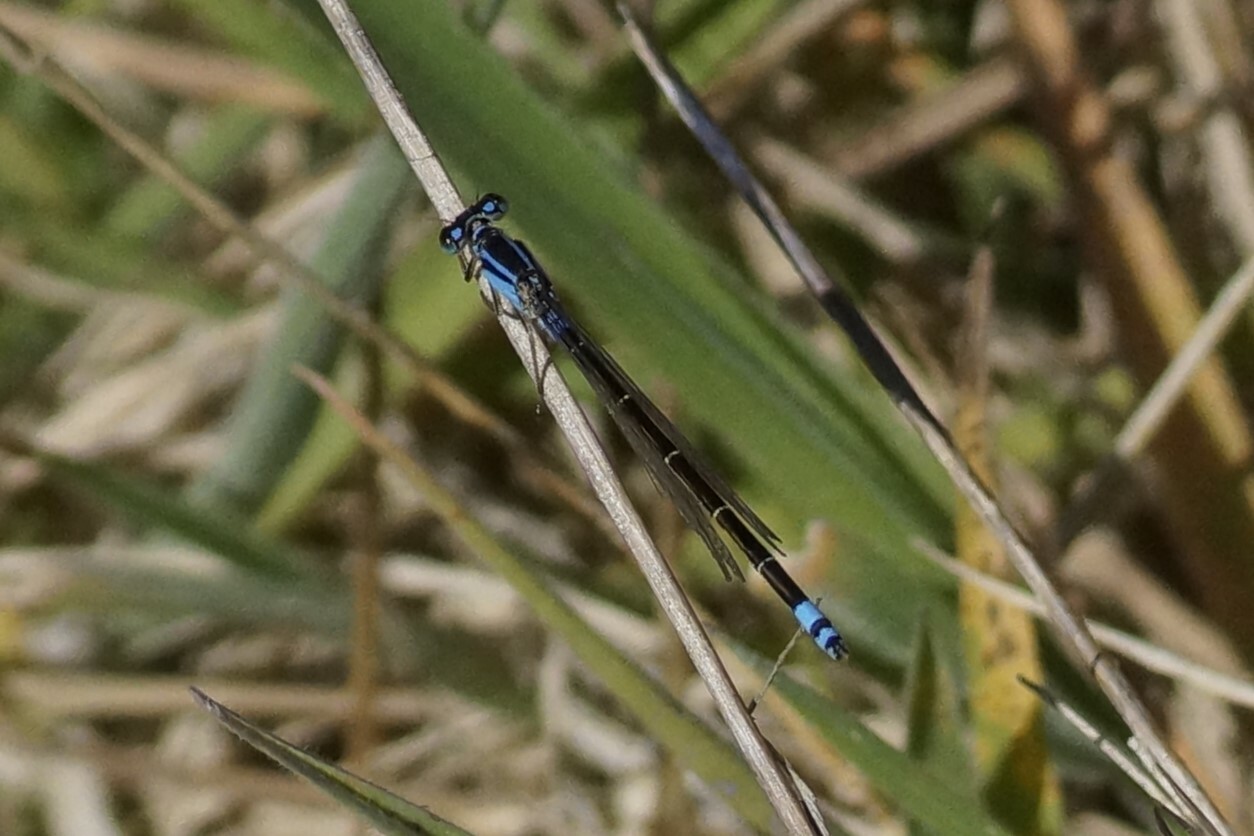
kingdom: Animalia
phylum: Arthropoda
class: Insecta
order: Odonata
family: Coenagrionidae
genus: Ischnura
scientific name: Ischnura heterosticta
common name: Common bluetail
